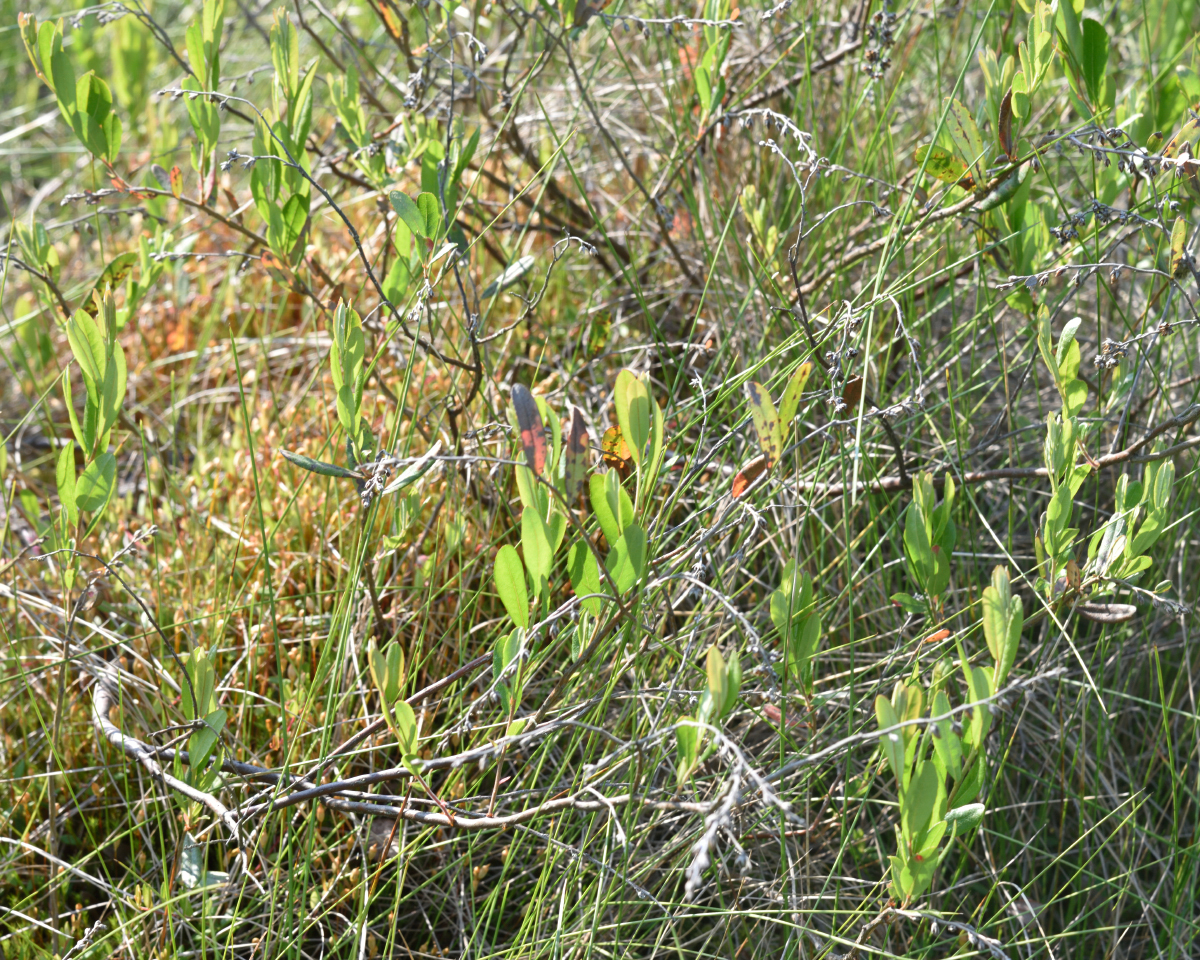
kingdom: Plantae
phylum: Tracheophyta
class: Magnoliopsida
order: Ericales
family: Ericaceae
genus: Chamaedaphne
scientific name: Chamaedaphne calyculata
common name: Leatherleaf
